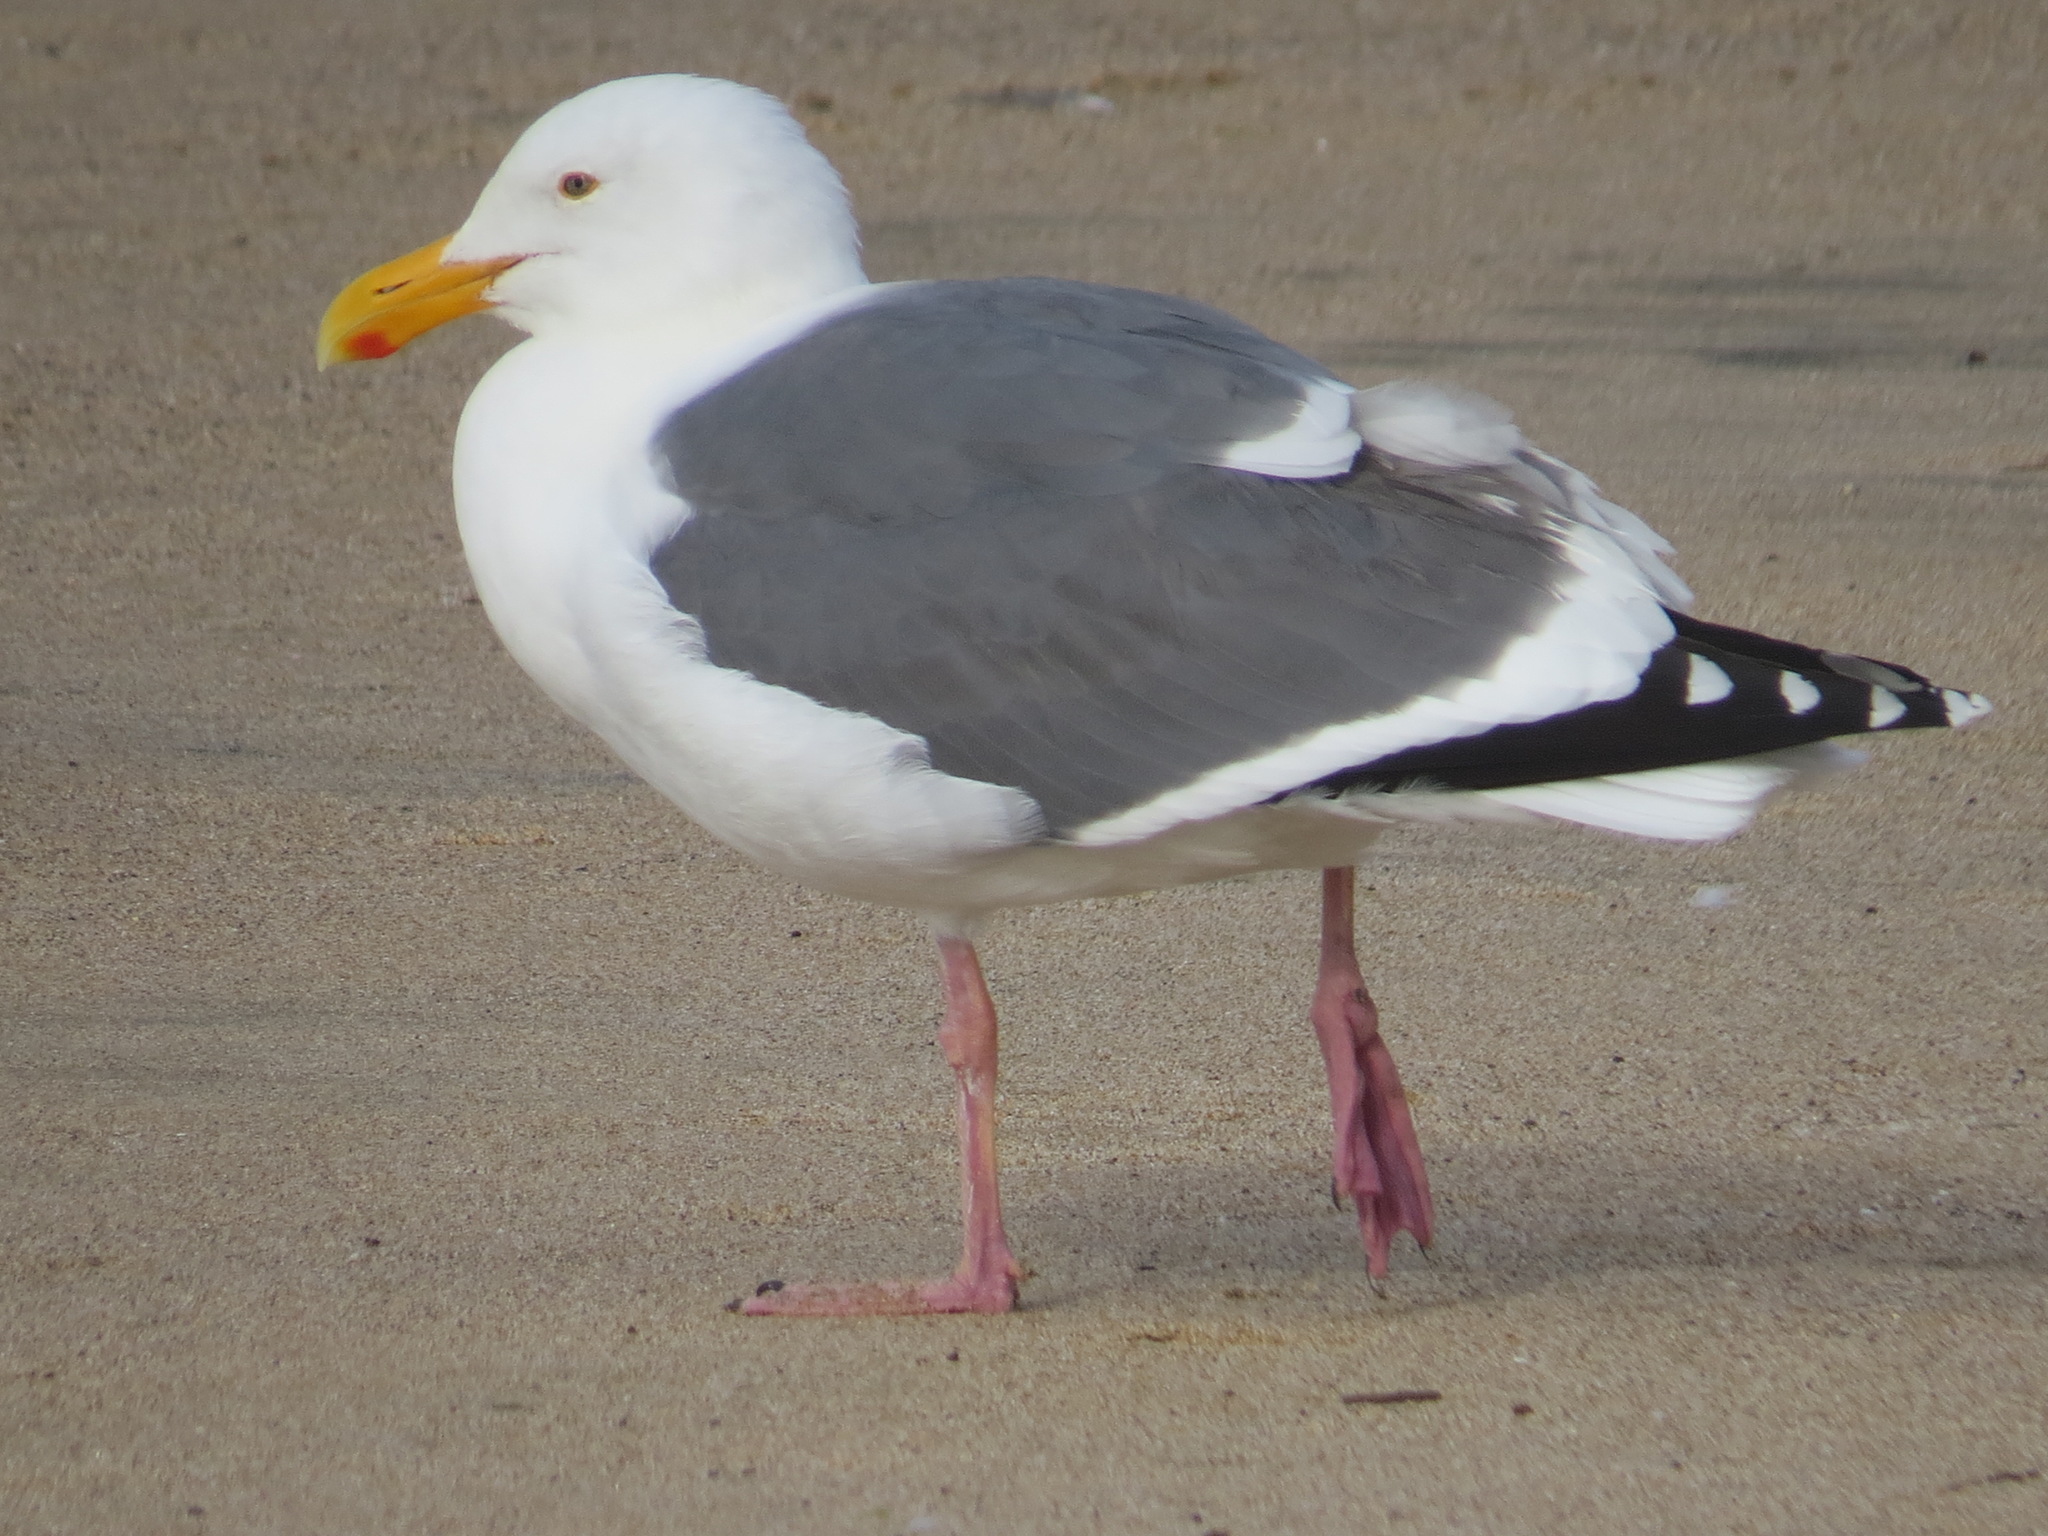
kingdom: Animalia
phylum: Chordata
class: Aves
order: Charadriiformes
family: Laridae
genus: Larus
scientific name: Larus occidentalis
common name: Western gull
